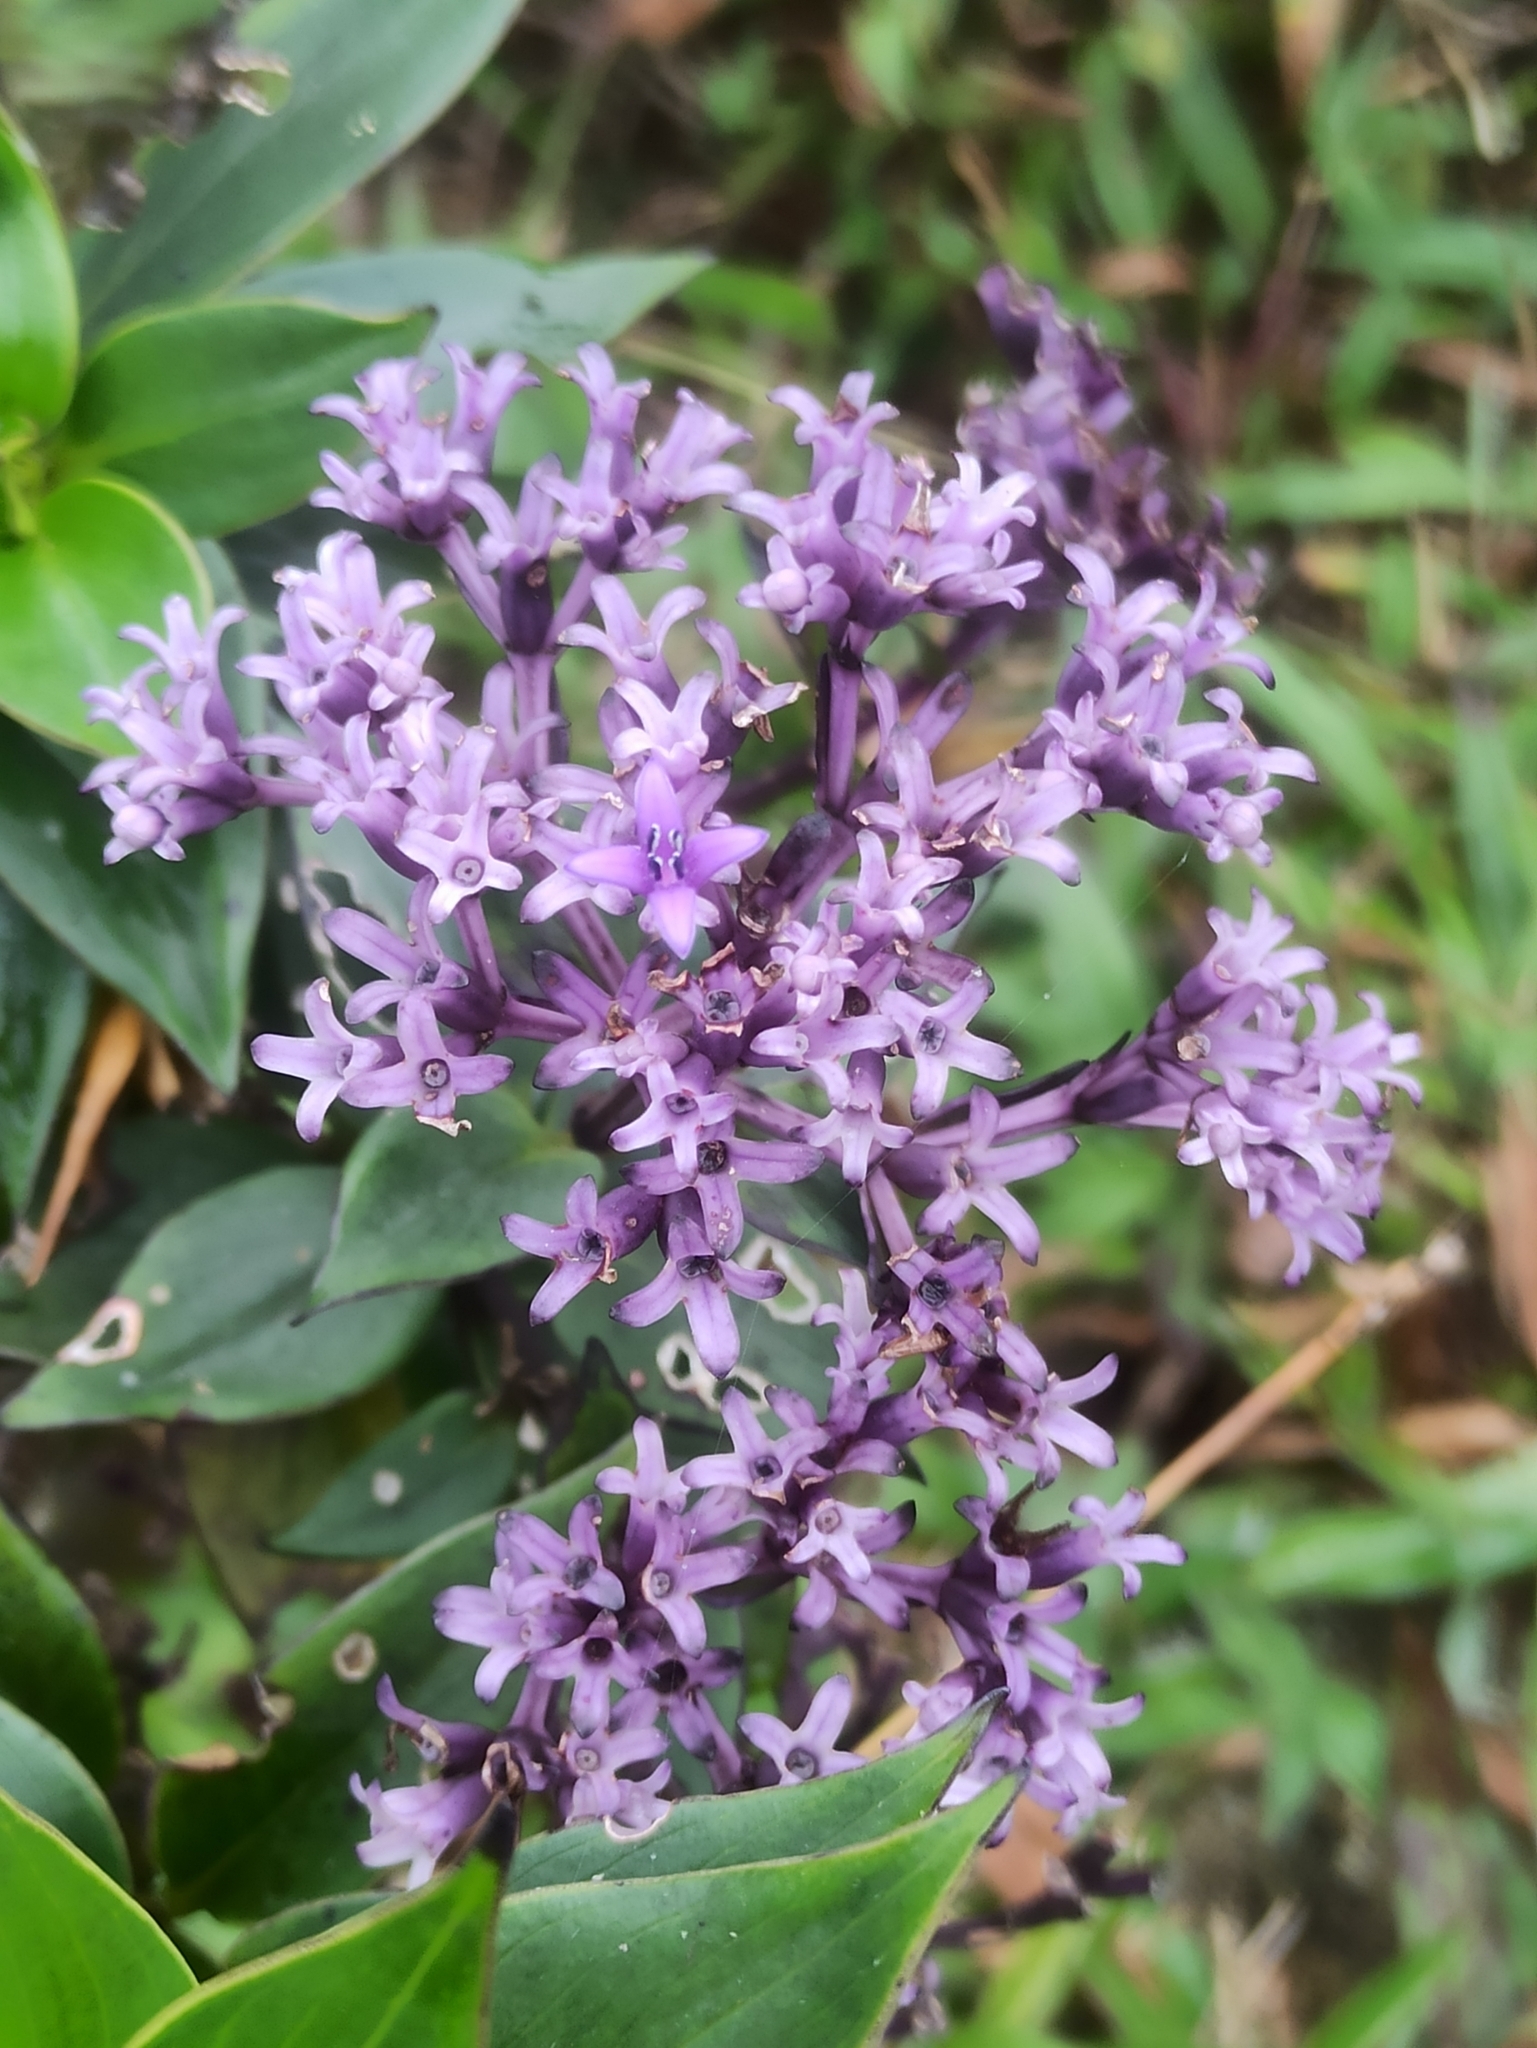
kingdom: Plantae
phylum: Tracheophyta
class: Magnoliopsida
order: Gentianales
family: Rubiaceae
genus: Hedyotis
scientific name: Hedyotis purpurascens
